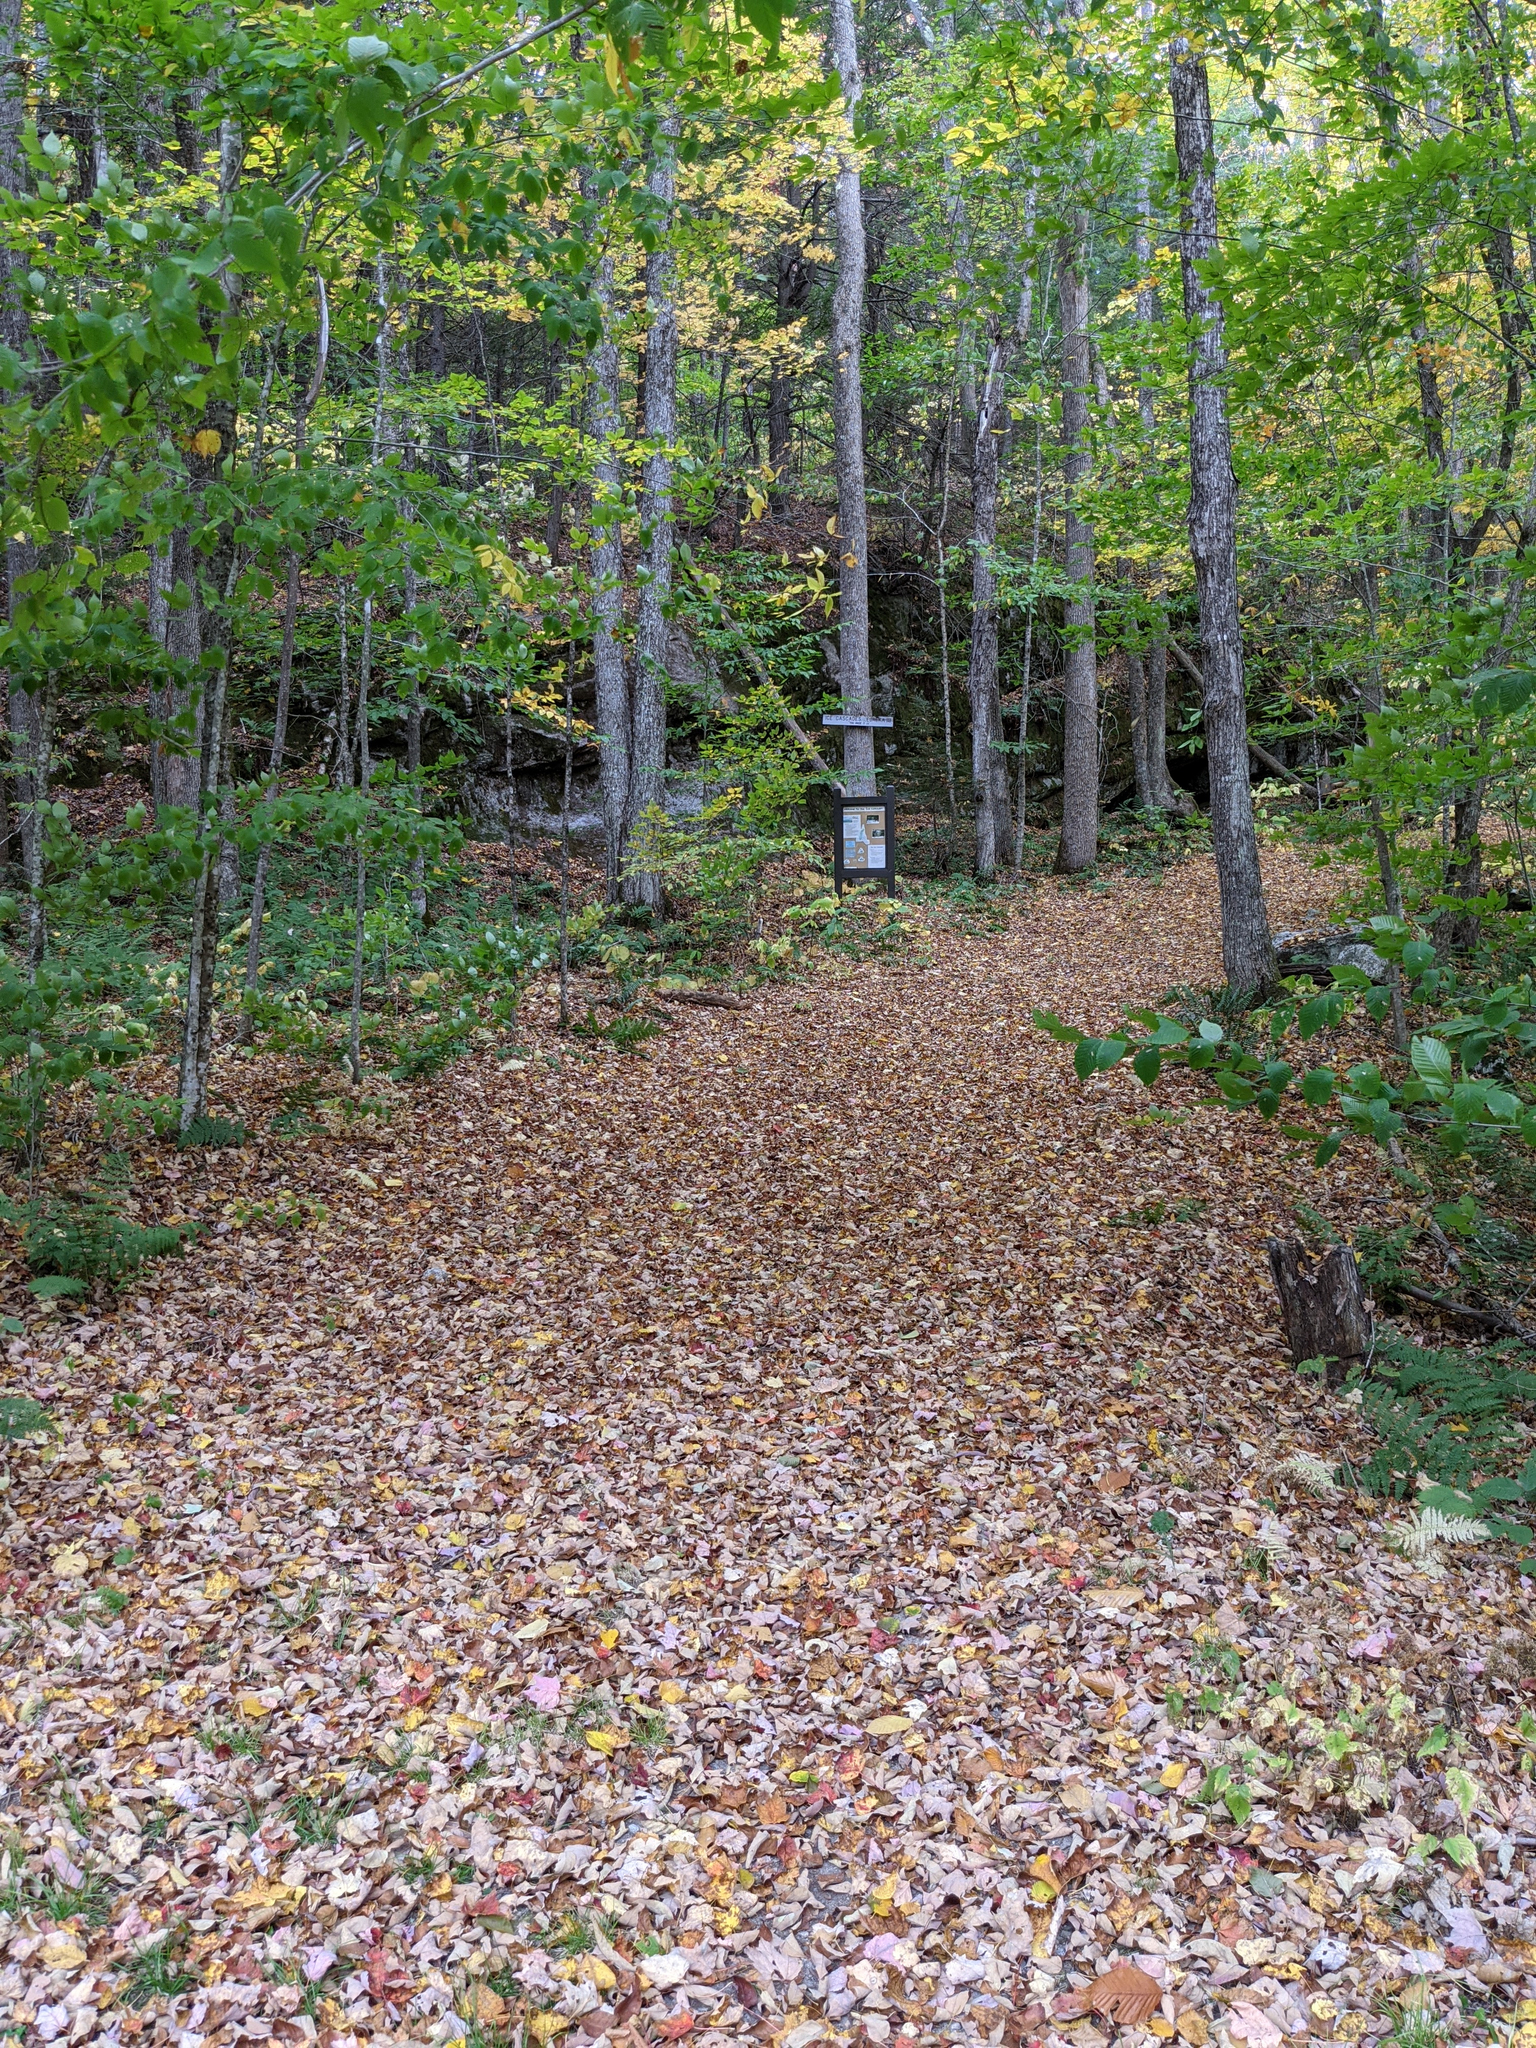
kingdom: Plantae
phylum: Tracheophyta
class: Magnoliopsida
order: Sapindales
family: Sapindaceae
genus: Acer
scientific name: Acer rubrum
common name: Red maple
